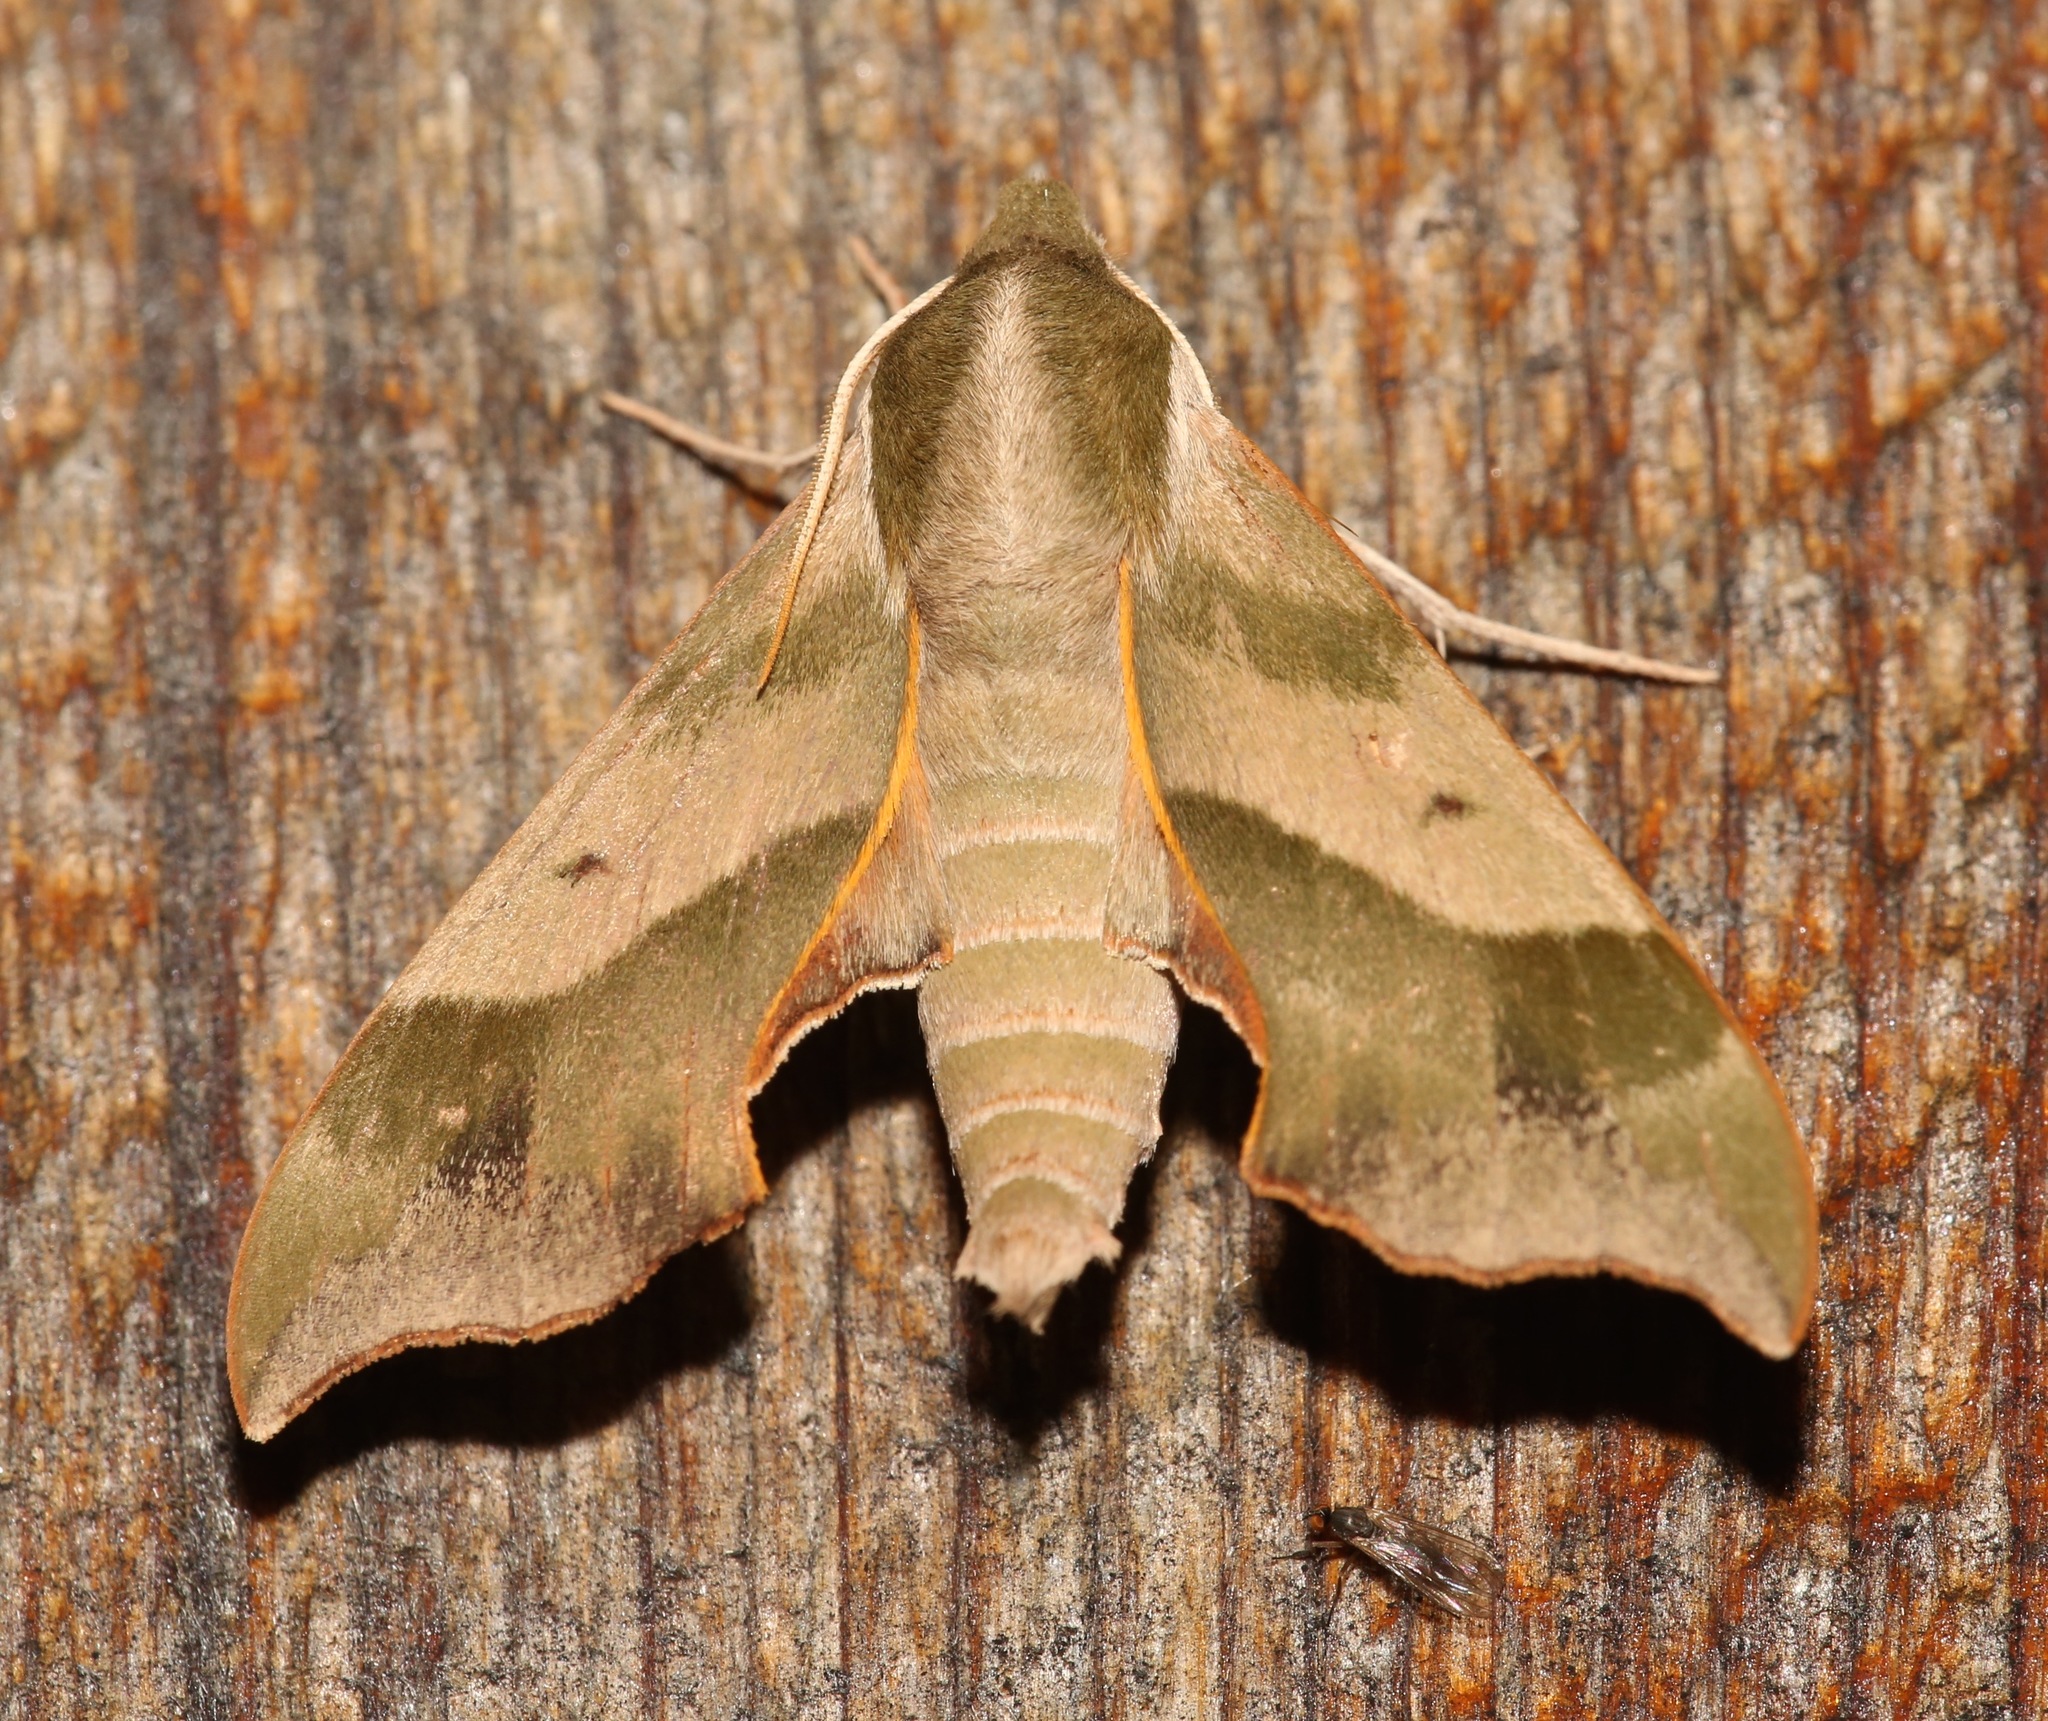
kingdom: Animalia
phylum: Arthropoda
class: Insecta
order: Lepidoptera
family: Sphingidae
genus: Darapsa
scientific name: Darapsa myron
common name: Hog sphinx
